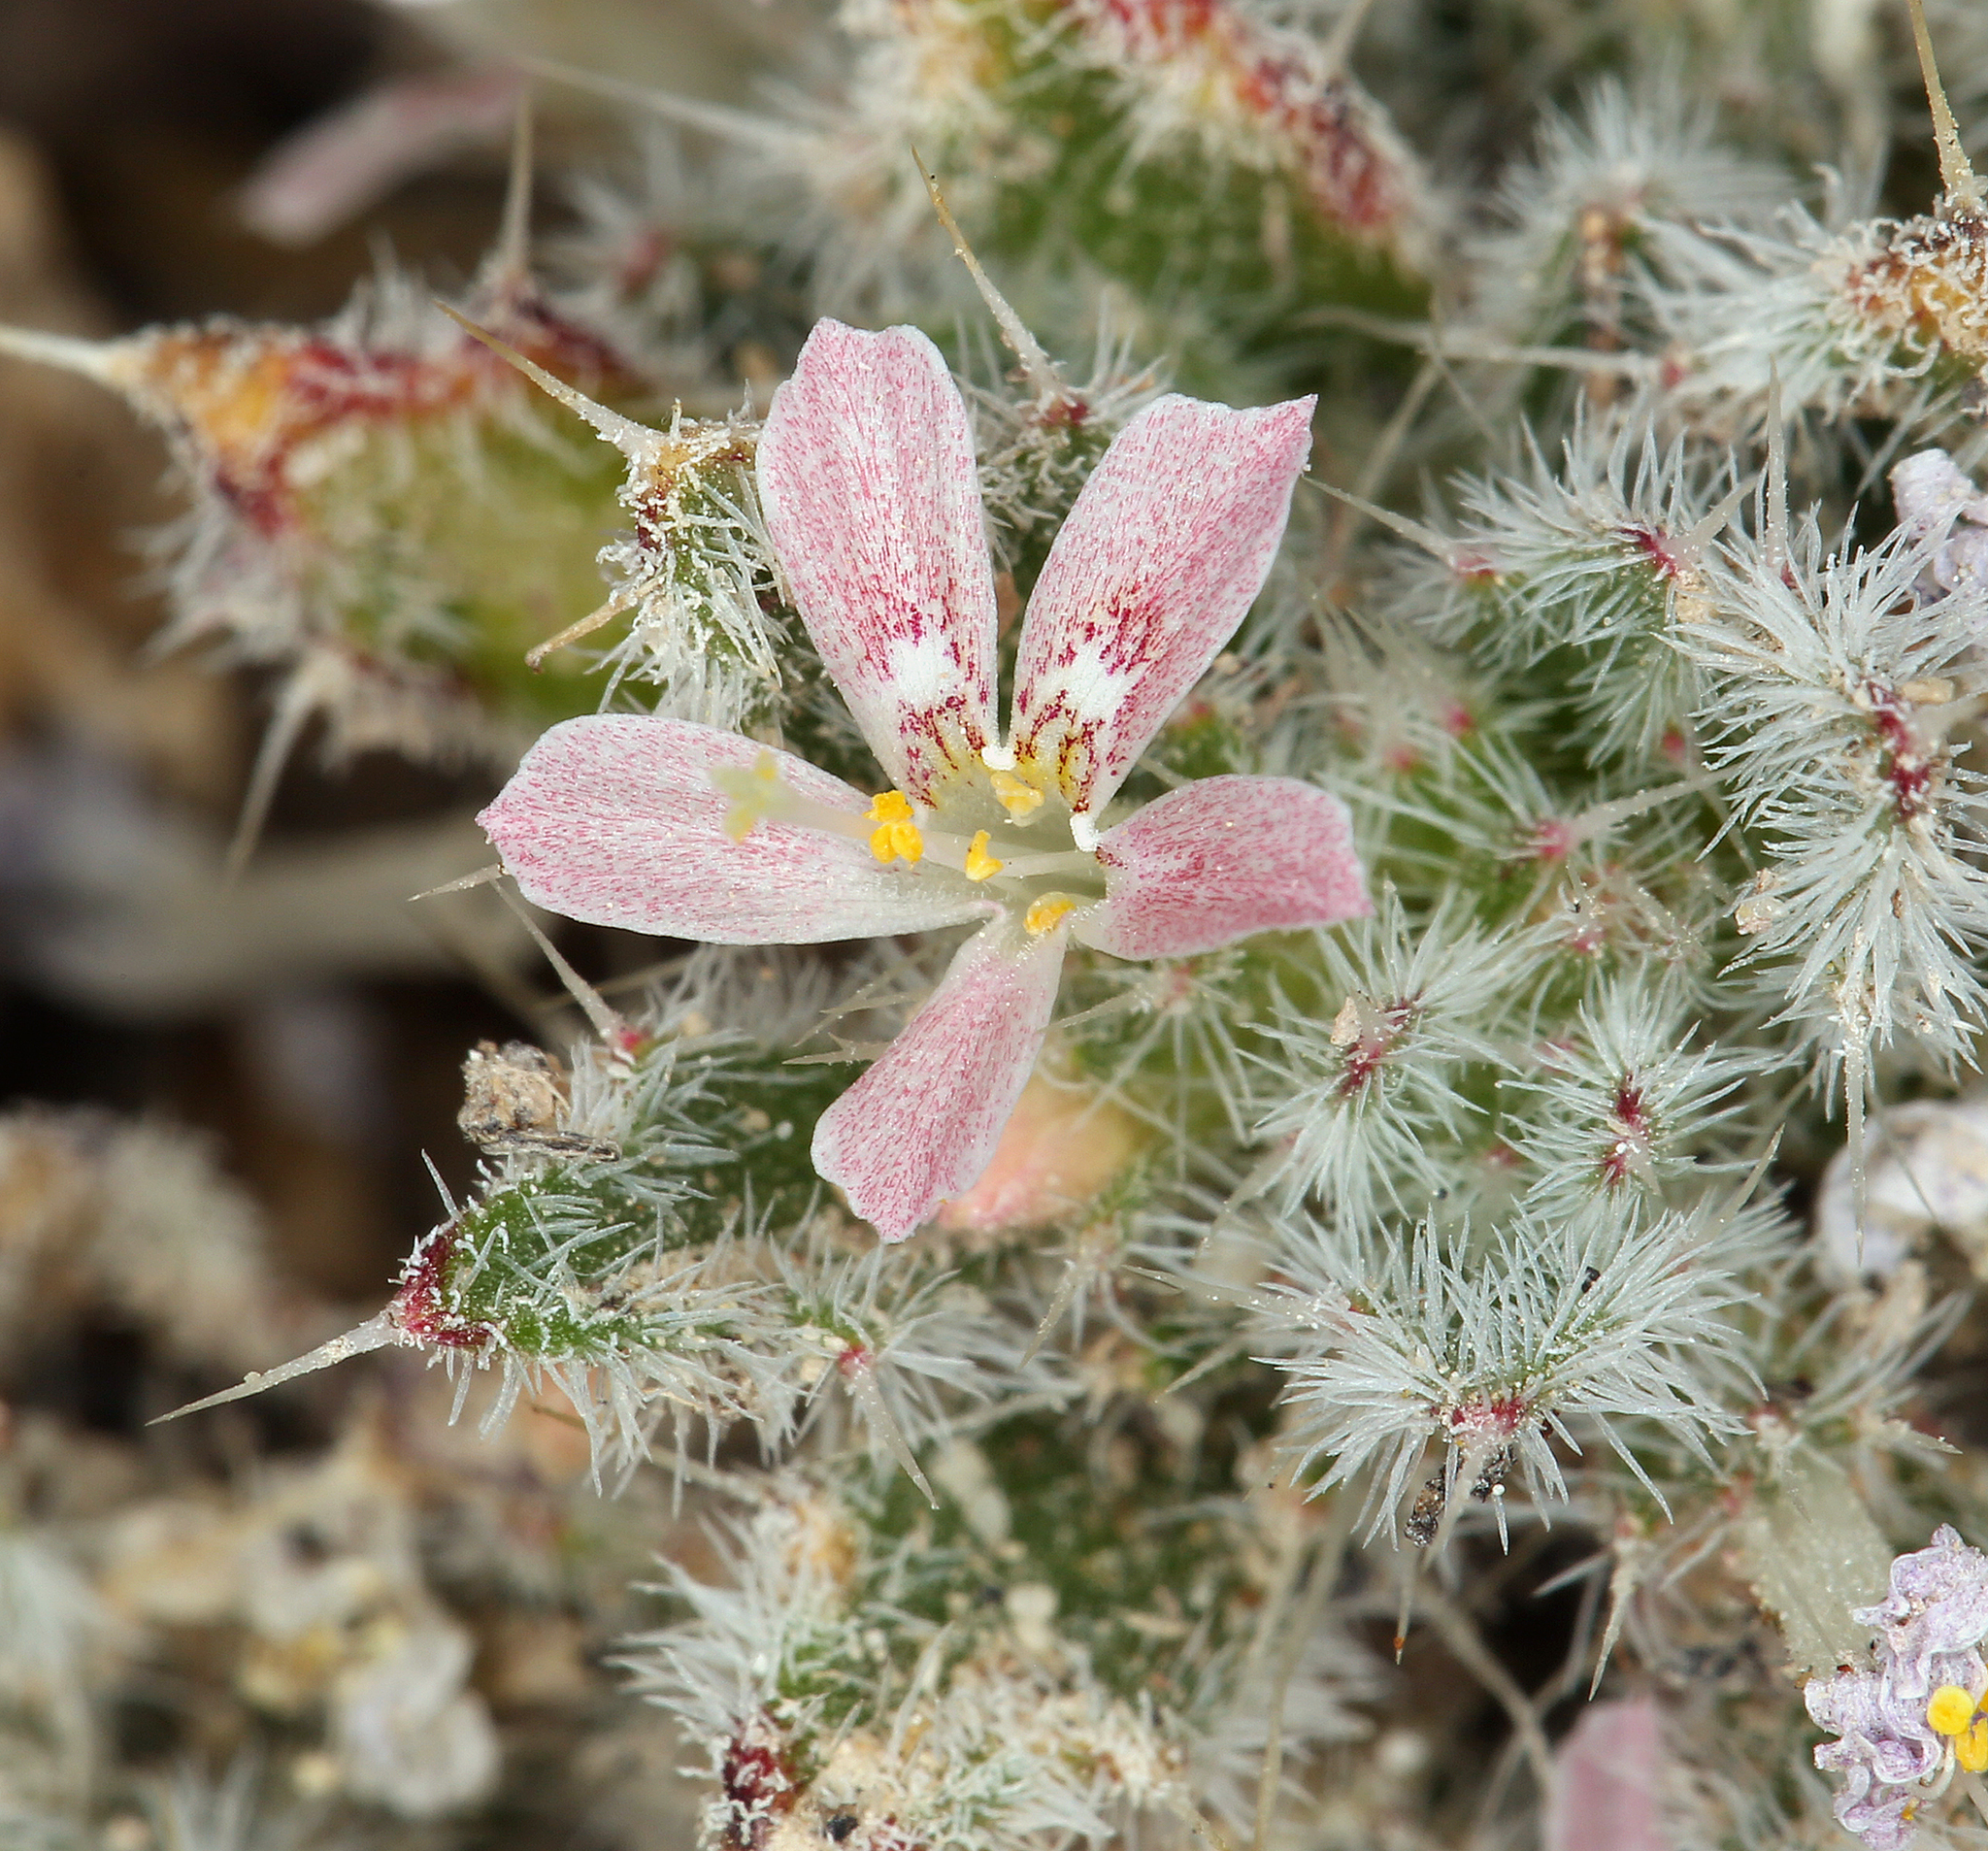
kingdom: Plantae
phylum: Tracheophyta
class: Magnoliopsida
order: Ericales
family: Polemoniaceae
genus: Loeseliastrum
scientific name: Loeseliastrum matthewsii
